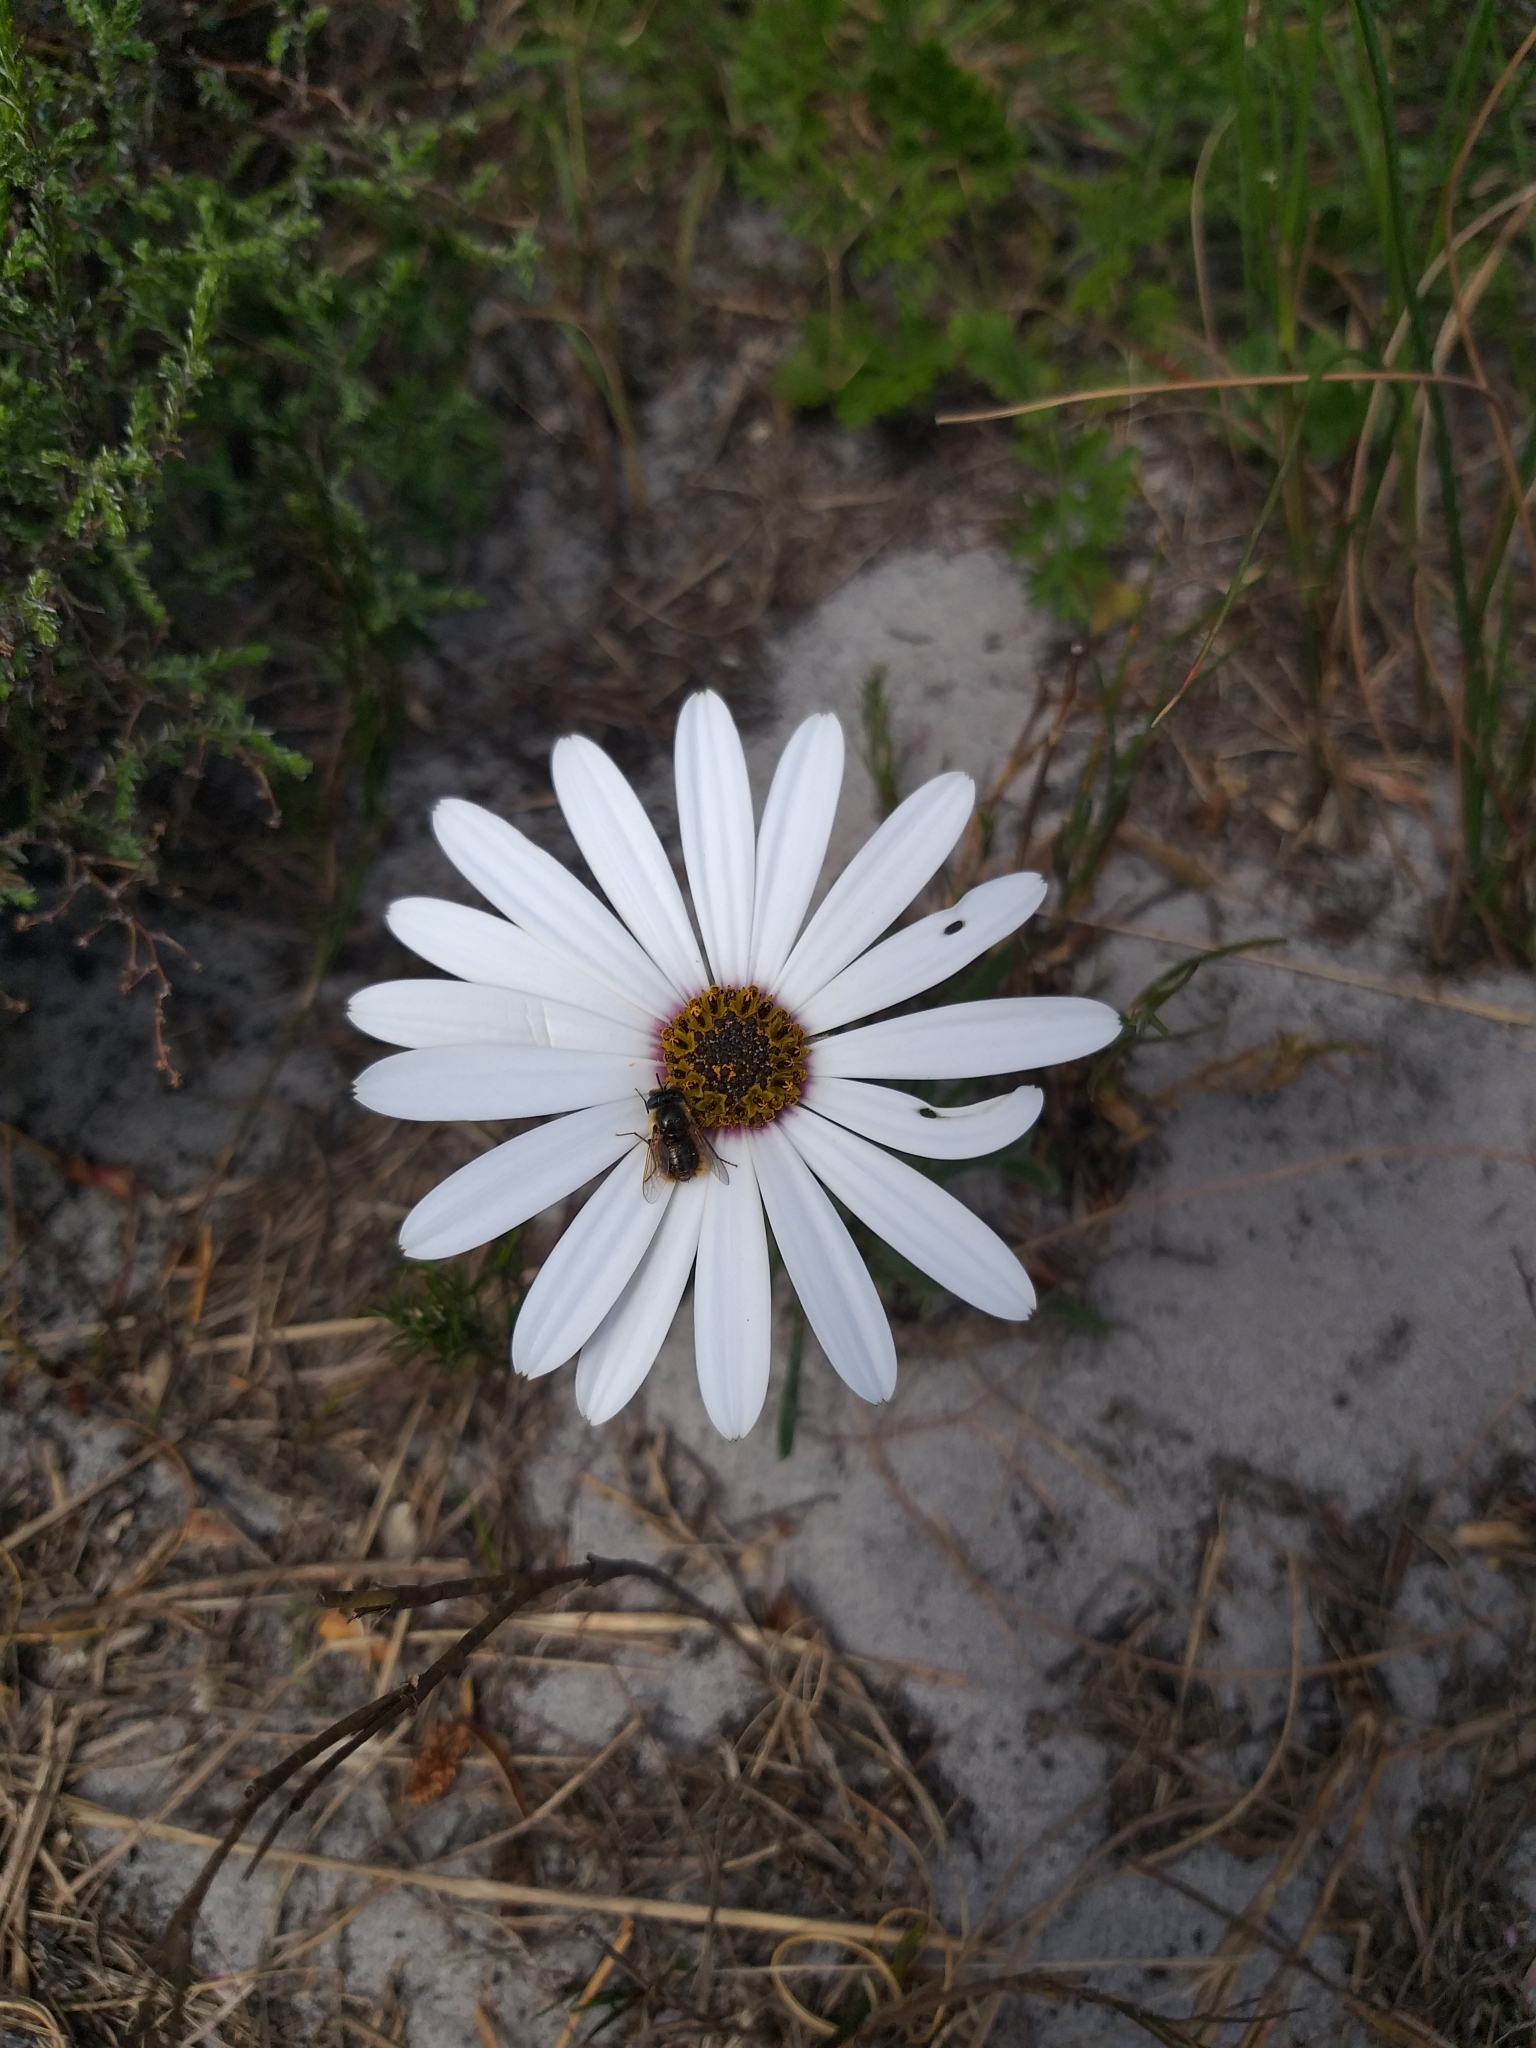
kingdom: Plantae
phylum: Tracheophyta
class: Magnoliopsida
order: Asterales
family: Asteraceae
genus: Dimorphotheca
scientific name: Dimorphotheca nudicaulis
